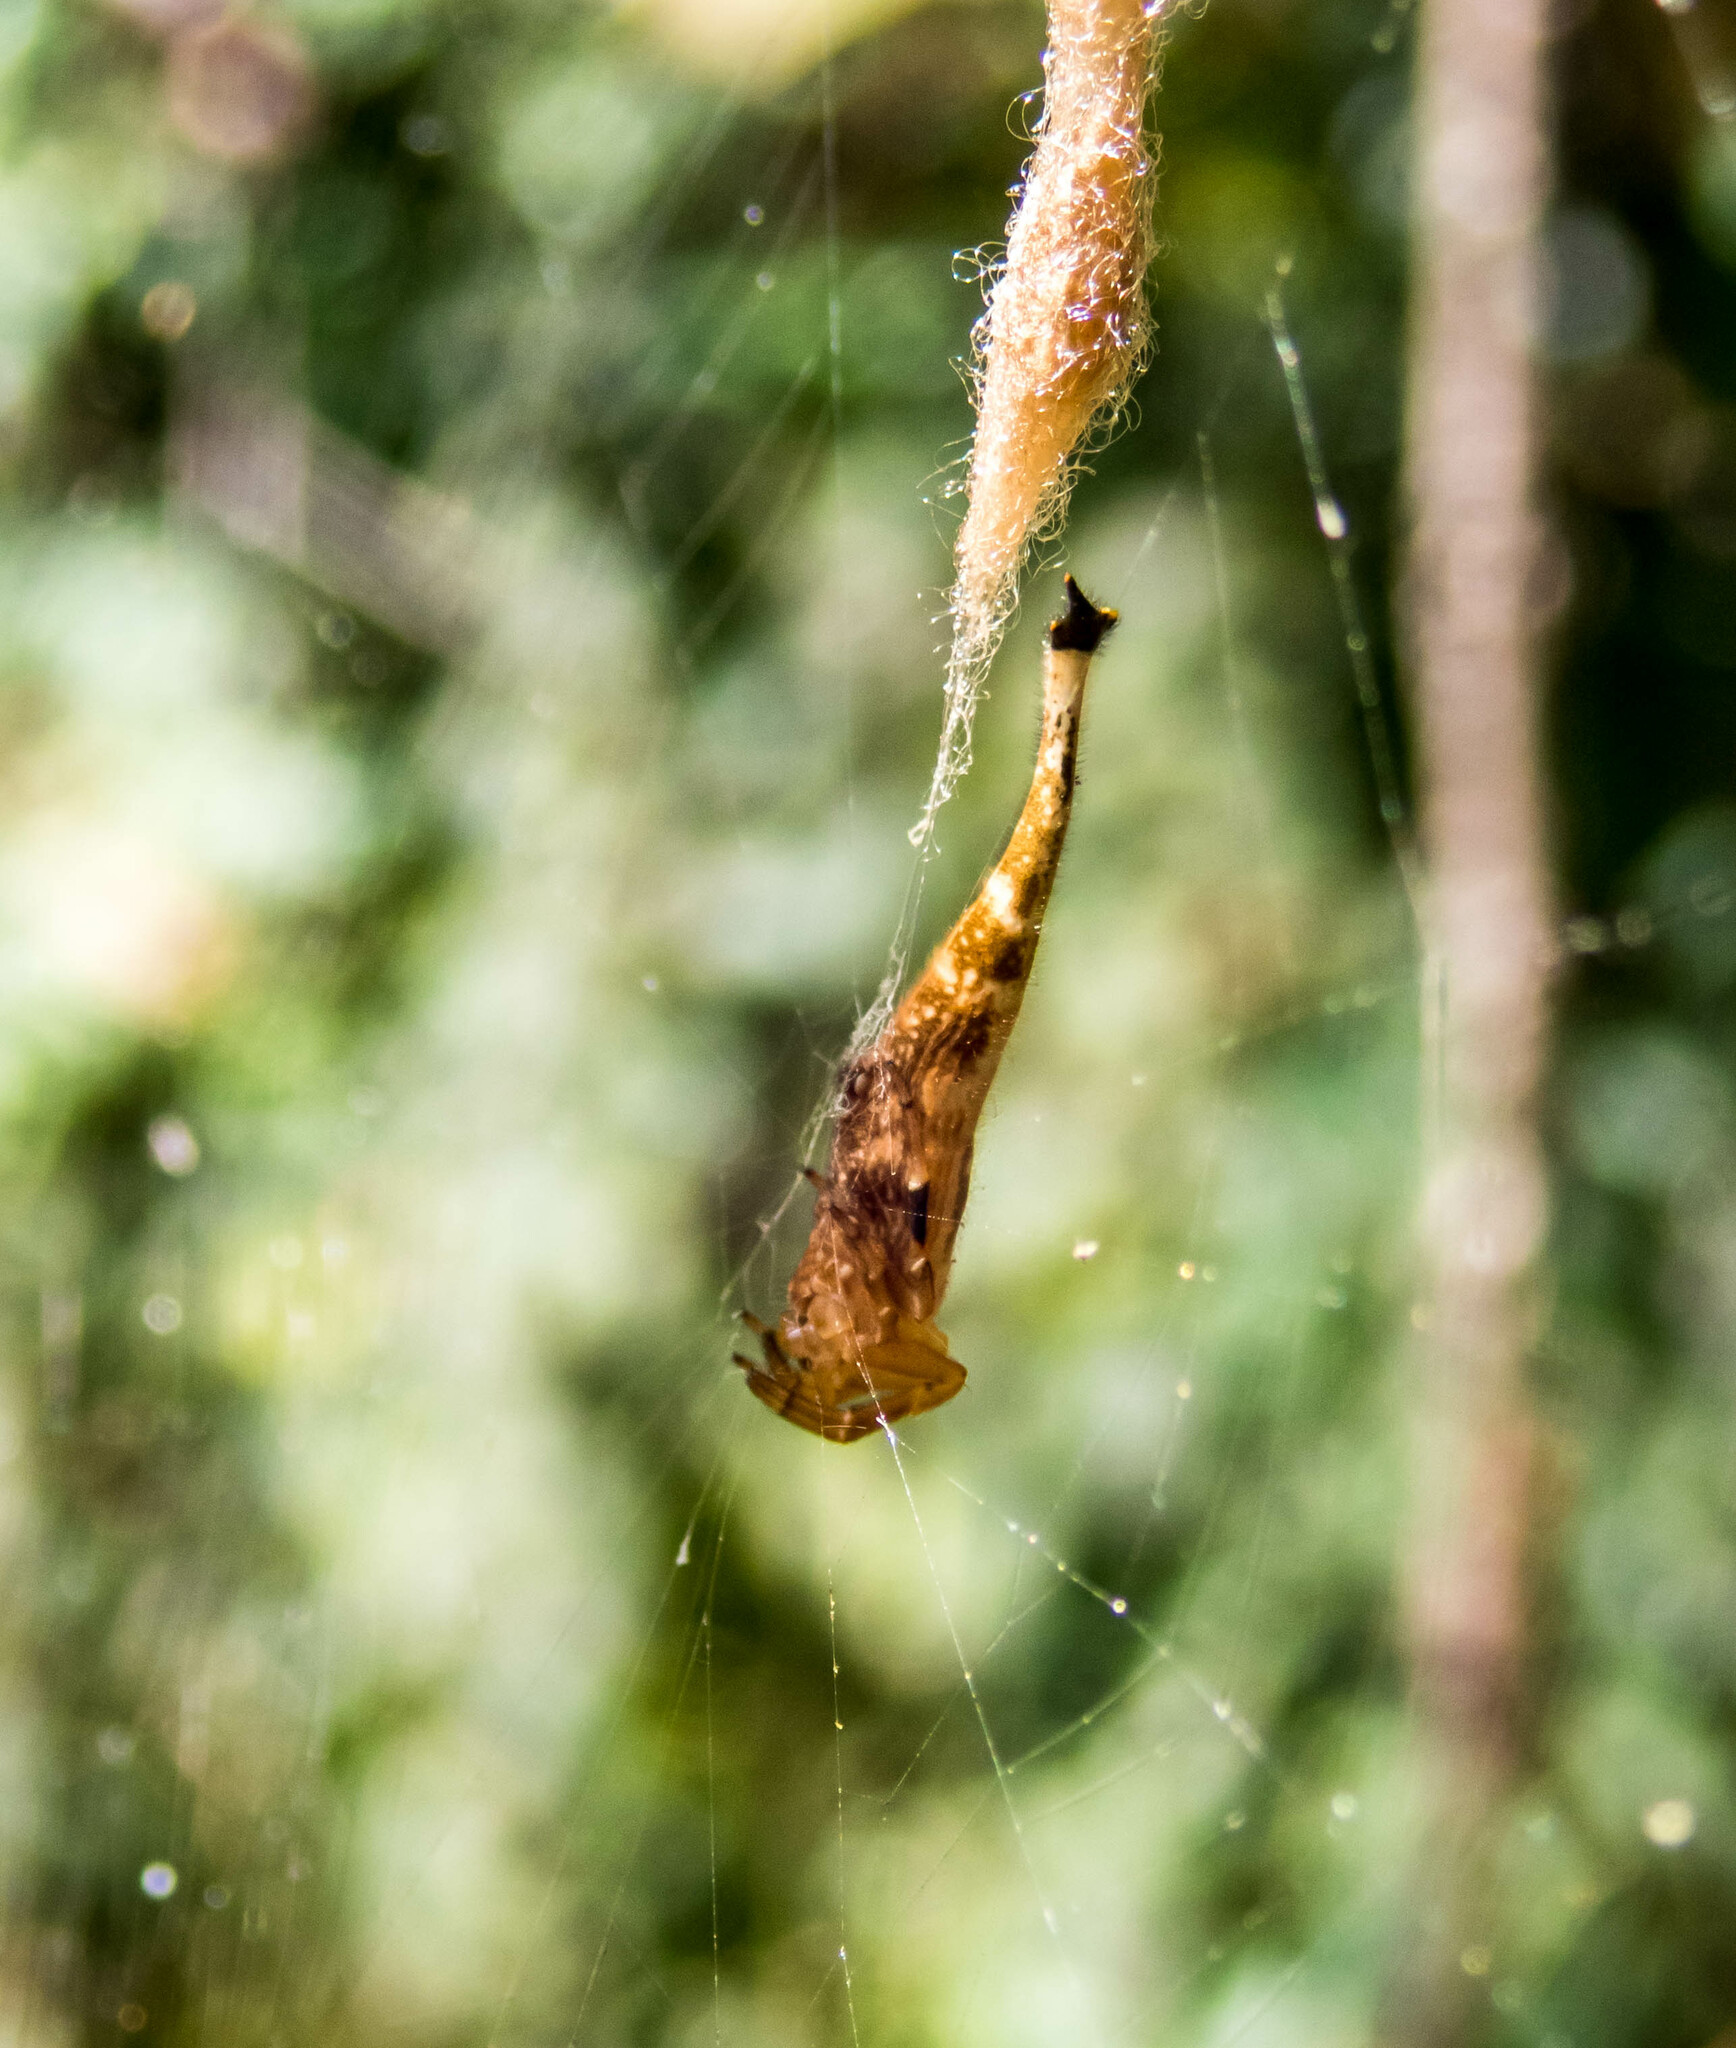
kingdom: Animalia
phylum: Arthropoda
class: Arachnida
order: Araneae
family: Araneidae
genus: Arachnura
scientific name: Arachnura higginsi
